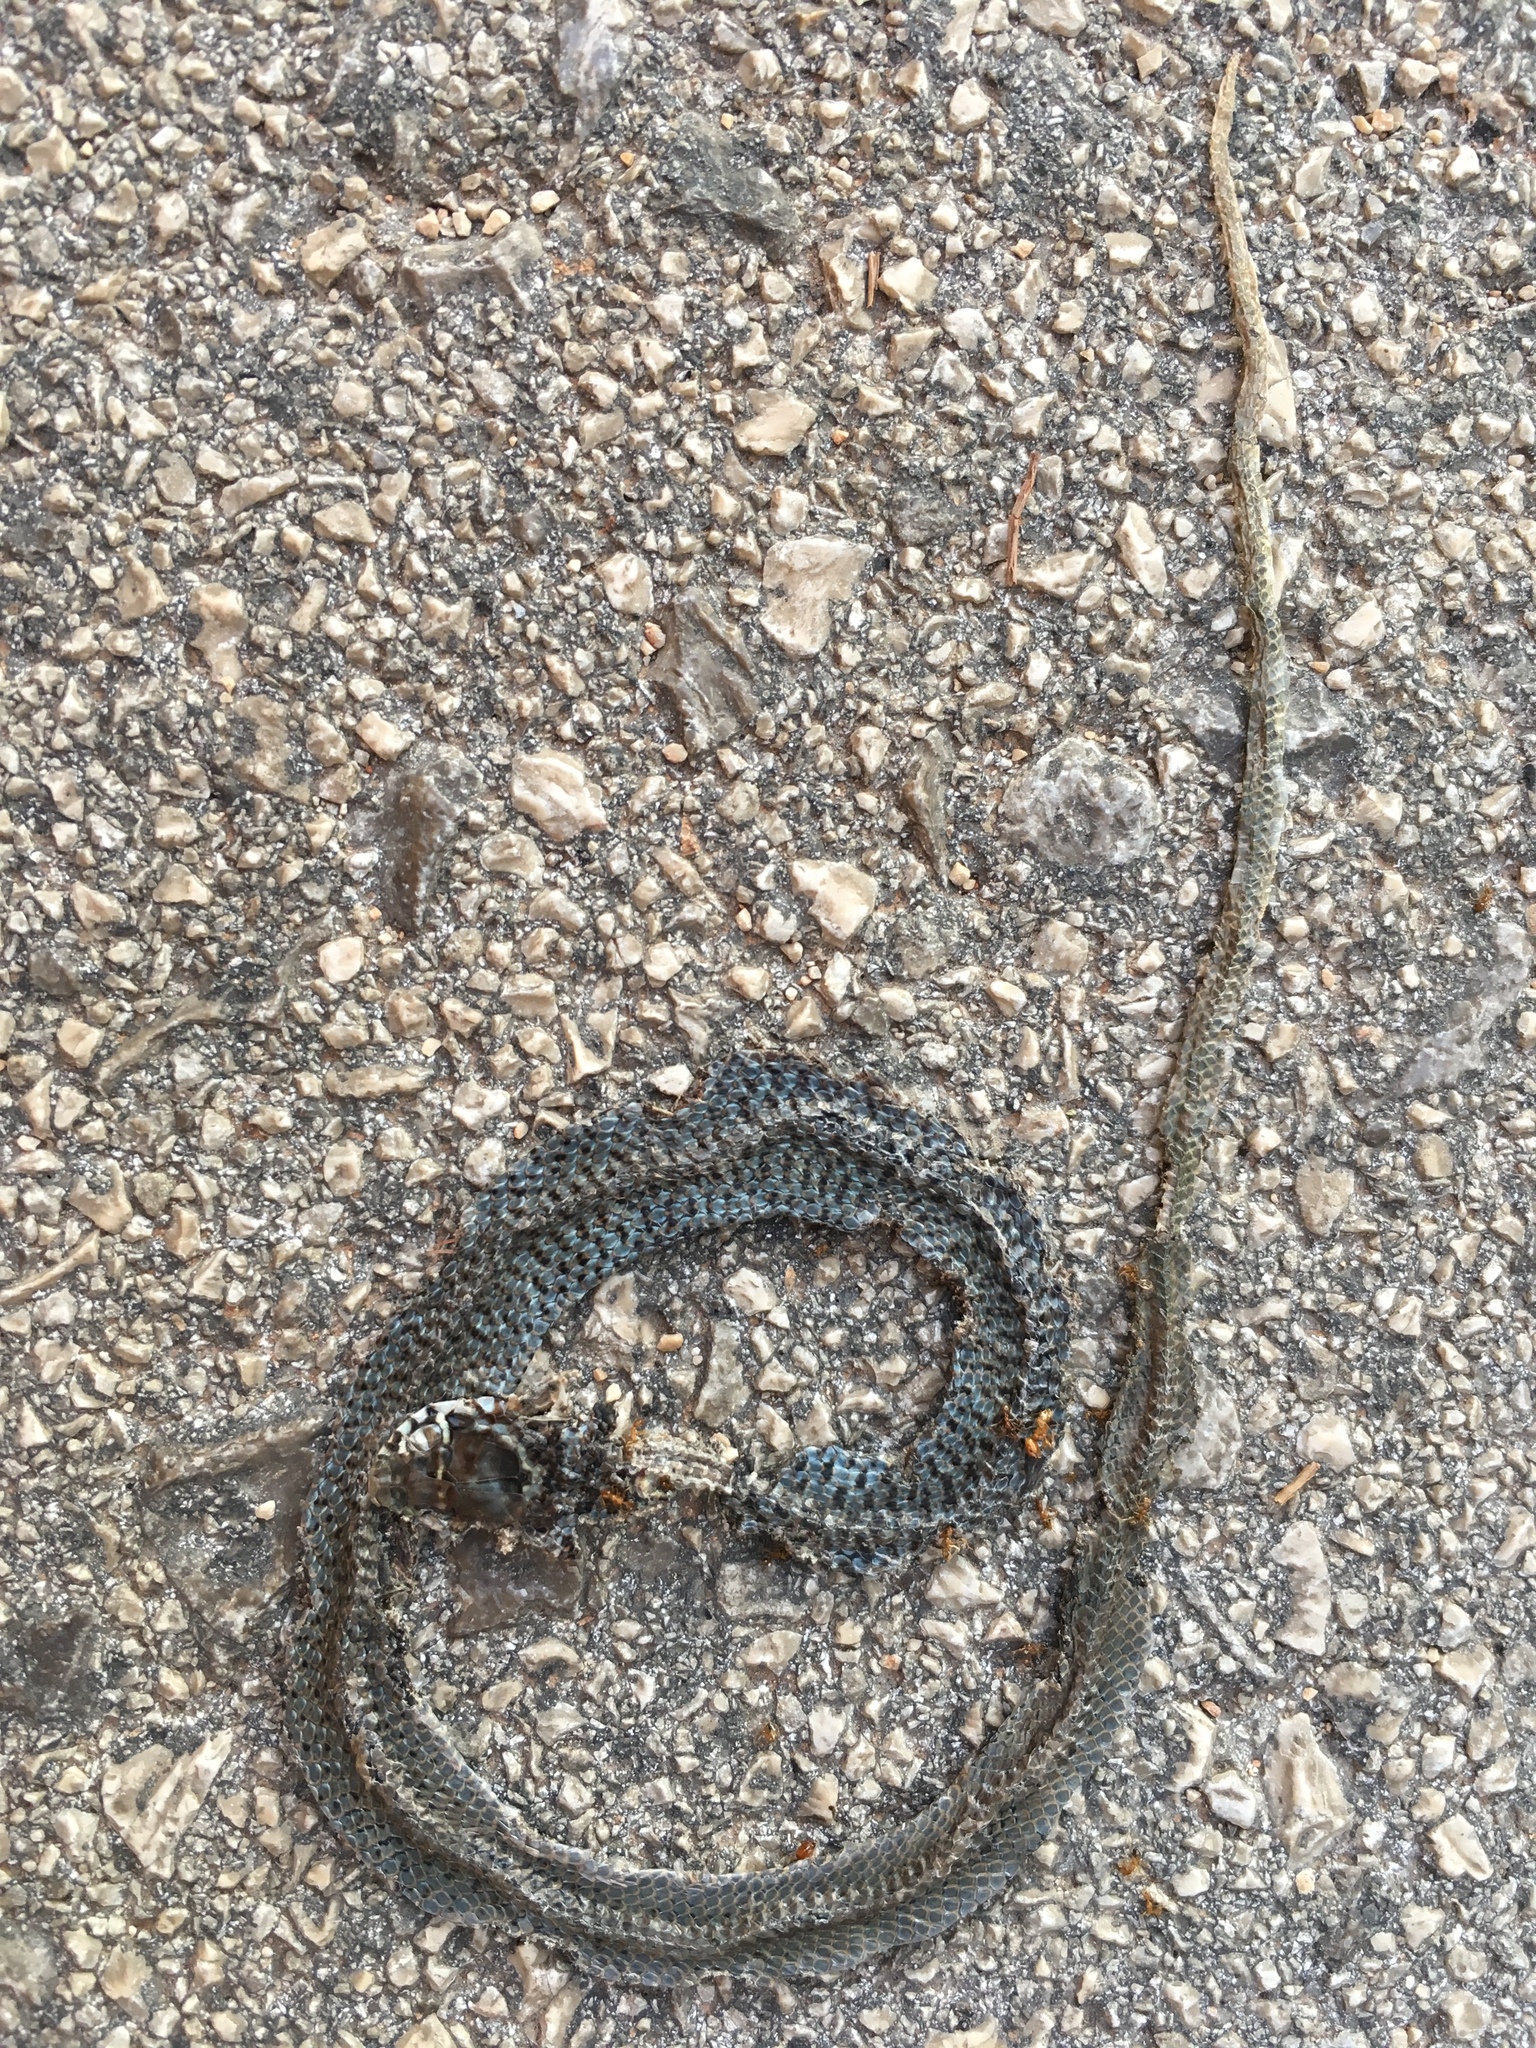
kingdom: Animalia
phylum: Chordata
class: Squamata
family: Colubridae
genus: Hierophis
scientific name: Hierophis gemonensis
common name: Balkan whip snake
